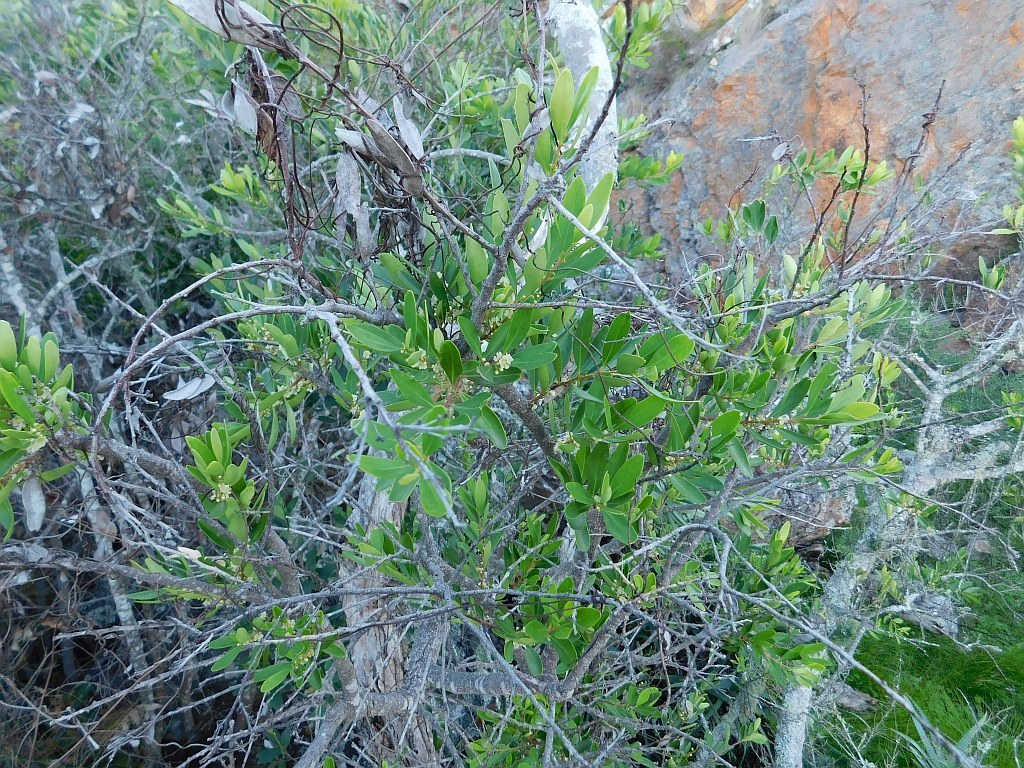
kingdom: Plantae
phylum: Tracheophyta
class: Magnoliopsida
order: Celastrales
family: Celastraceae
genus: Gymnosporia
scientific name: Gymnosporia laurina
